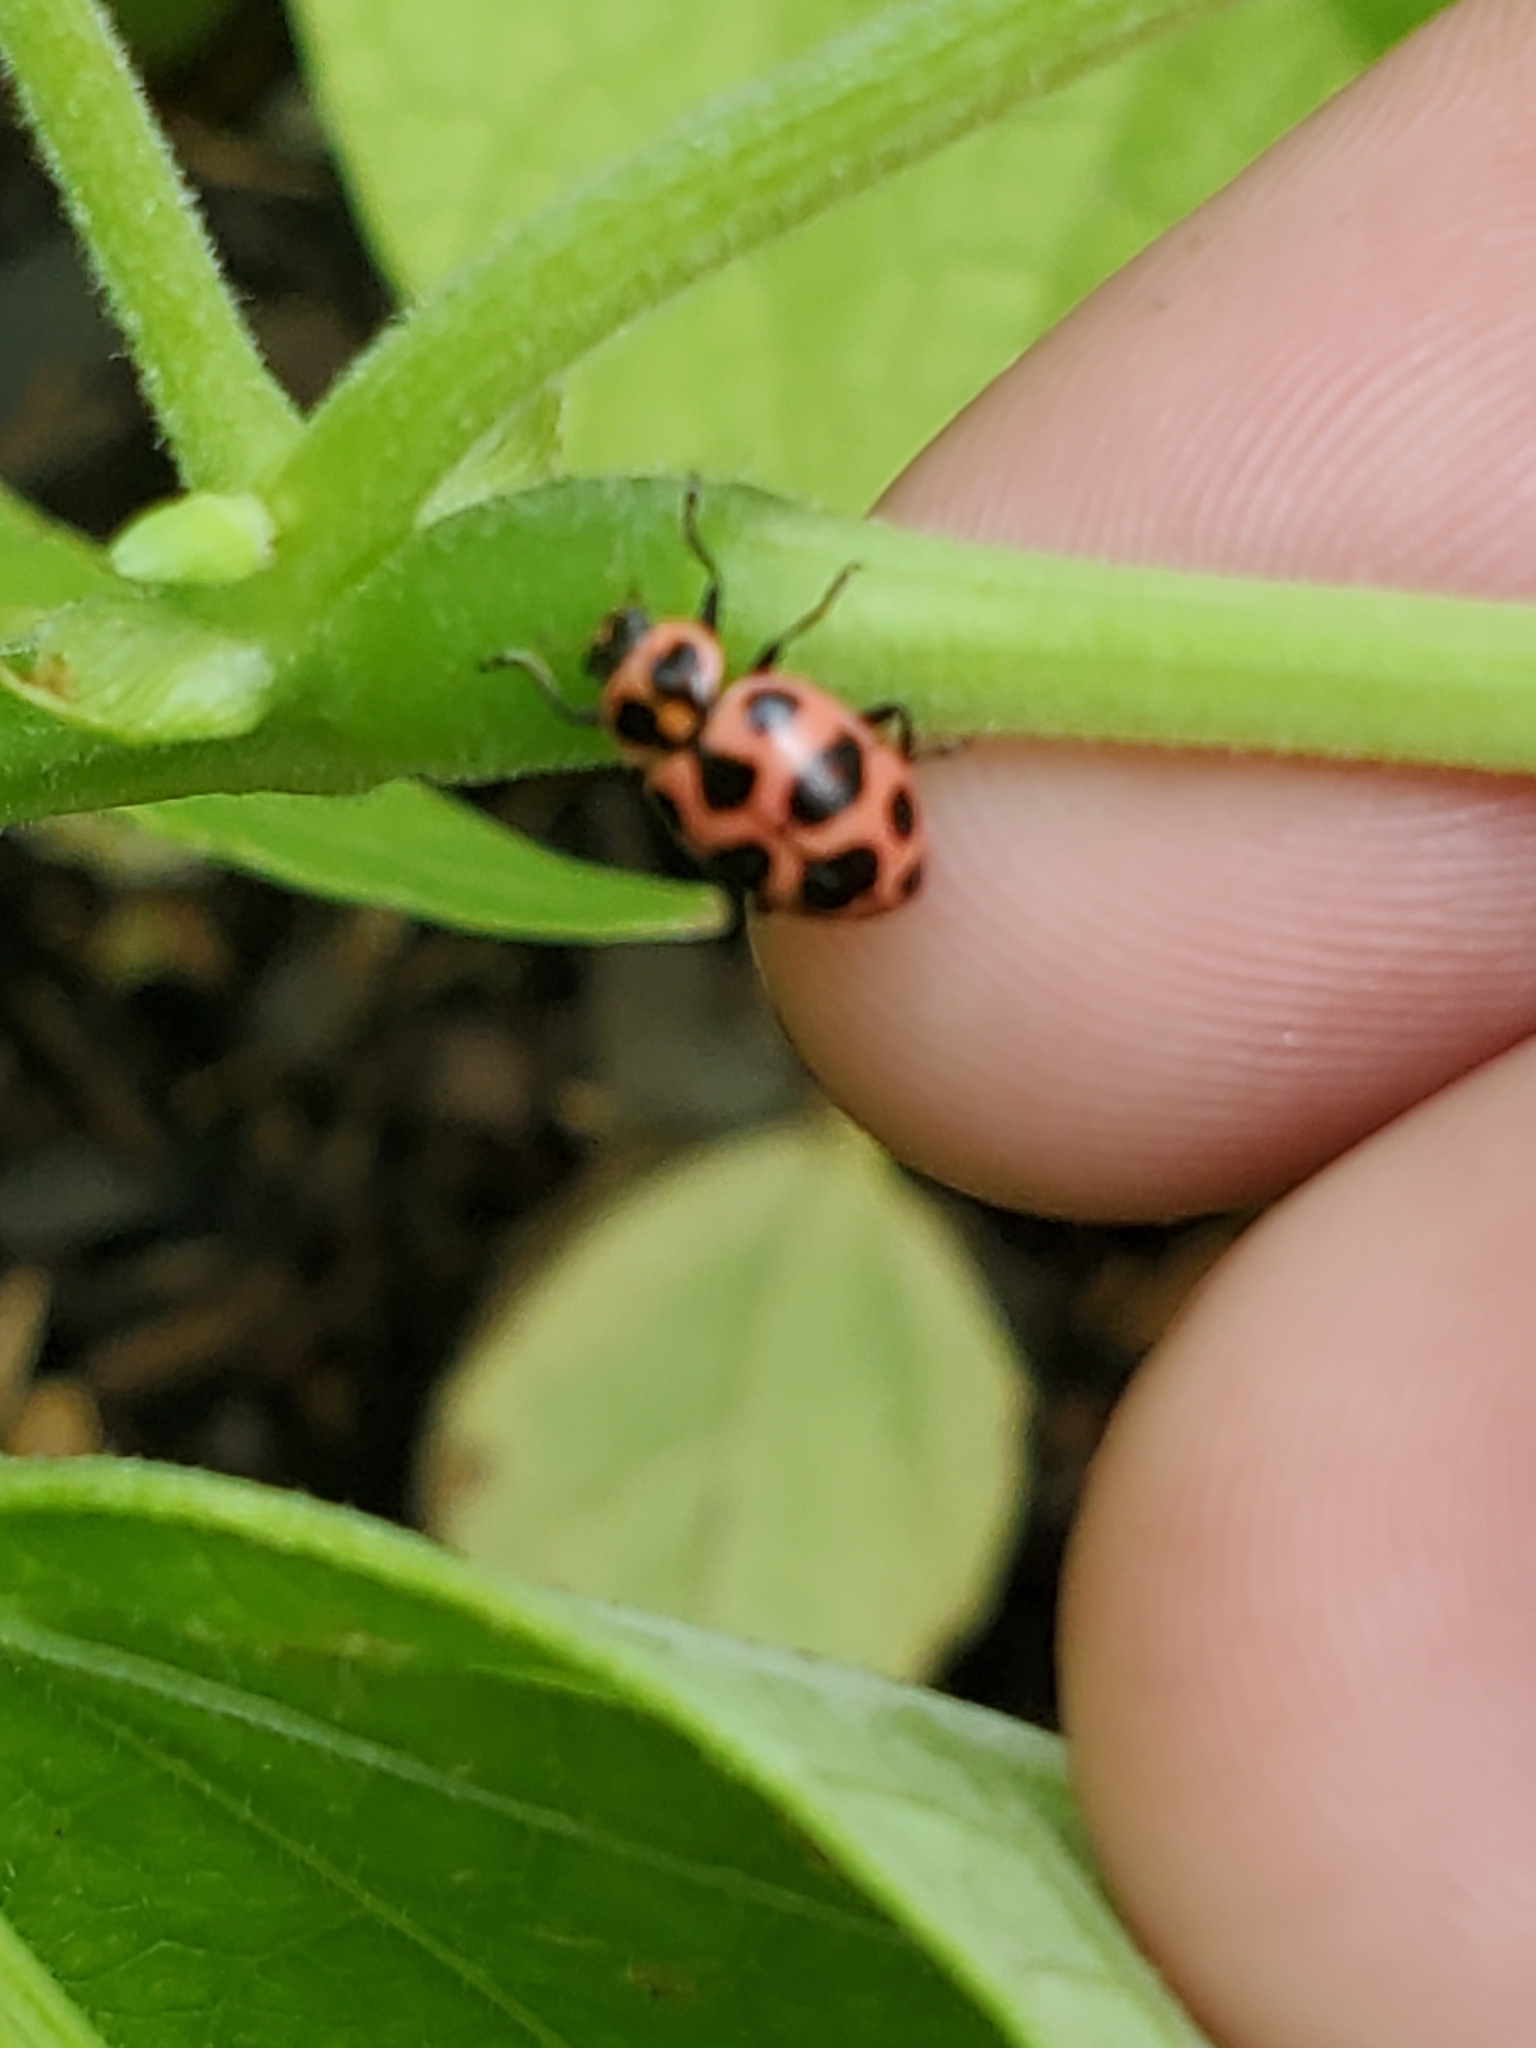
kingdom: Animalia
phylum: Arthropoda
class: Insecta
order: Coleoptera
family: Coccinellidae
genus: Coleomegilla
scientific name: Coleomegilla maculata
